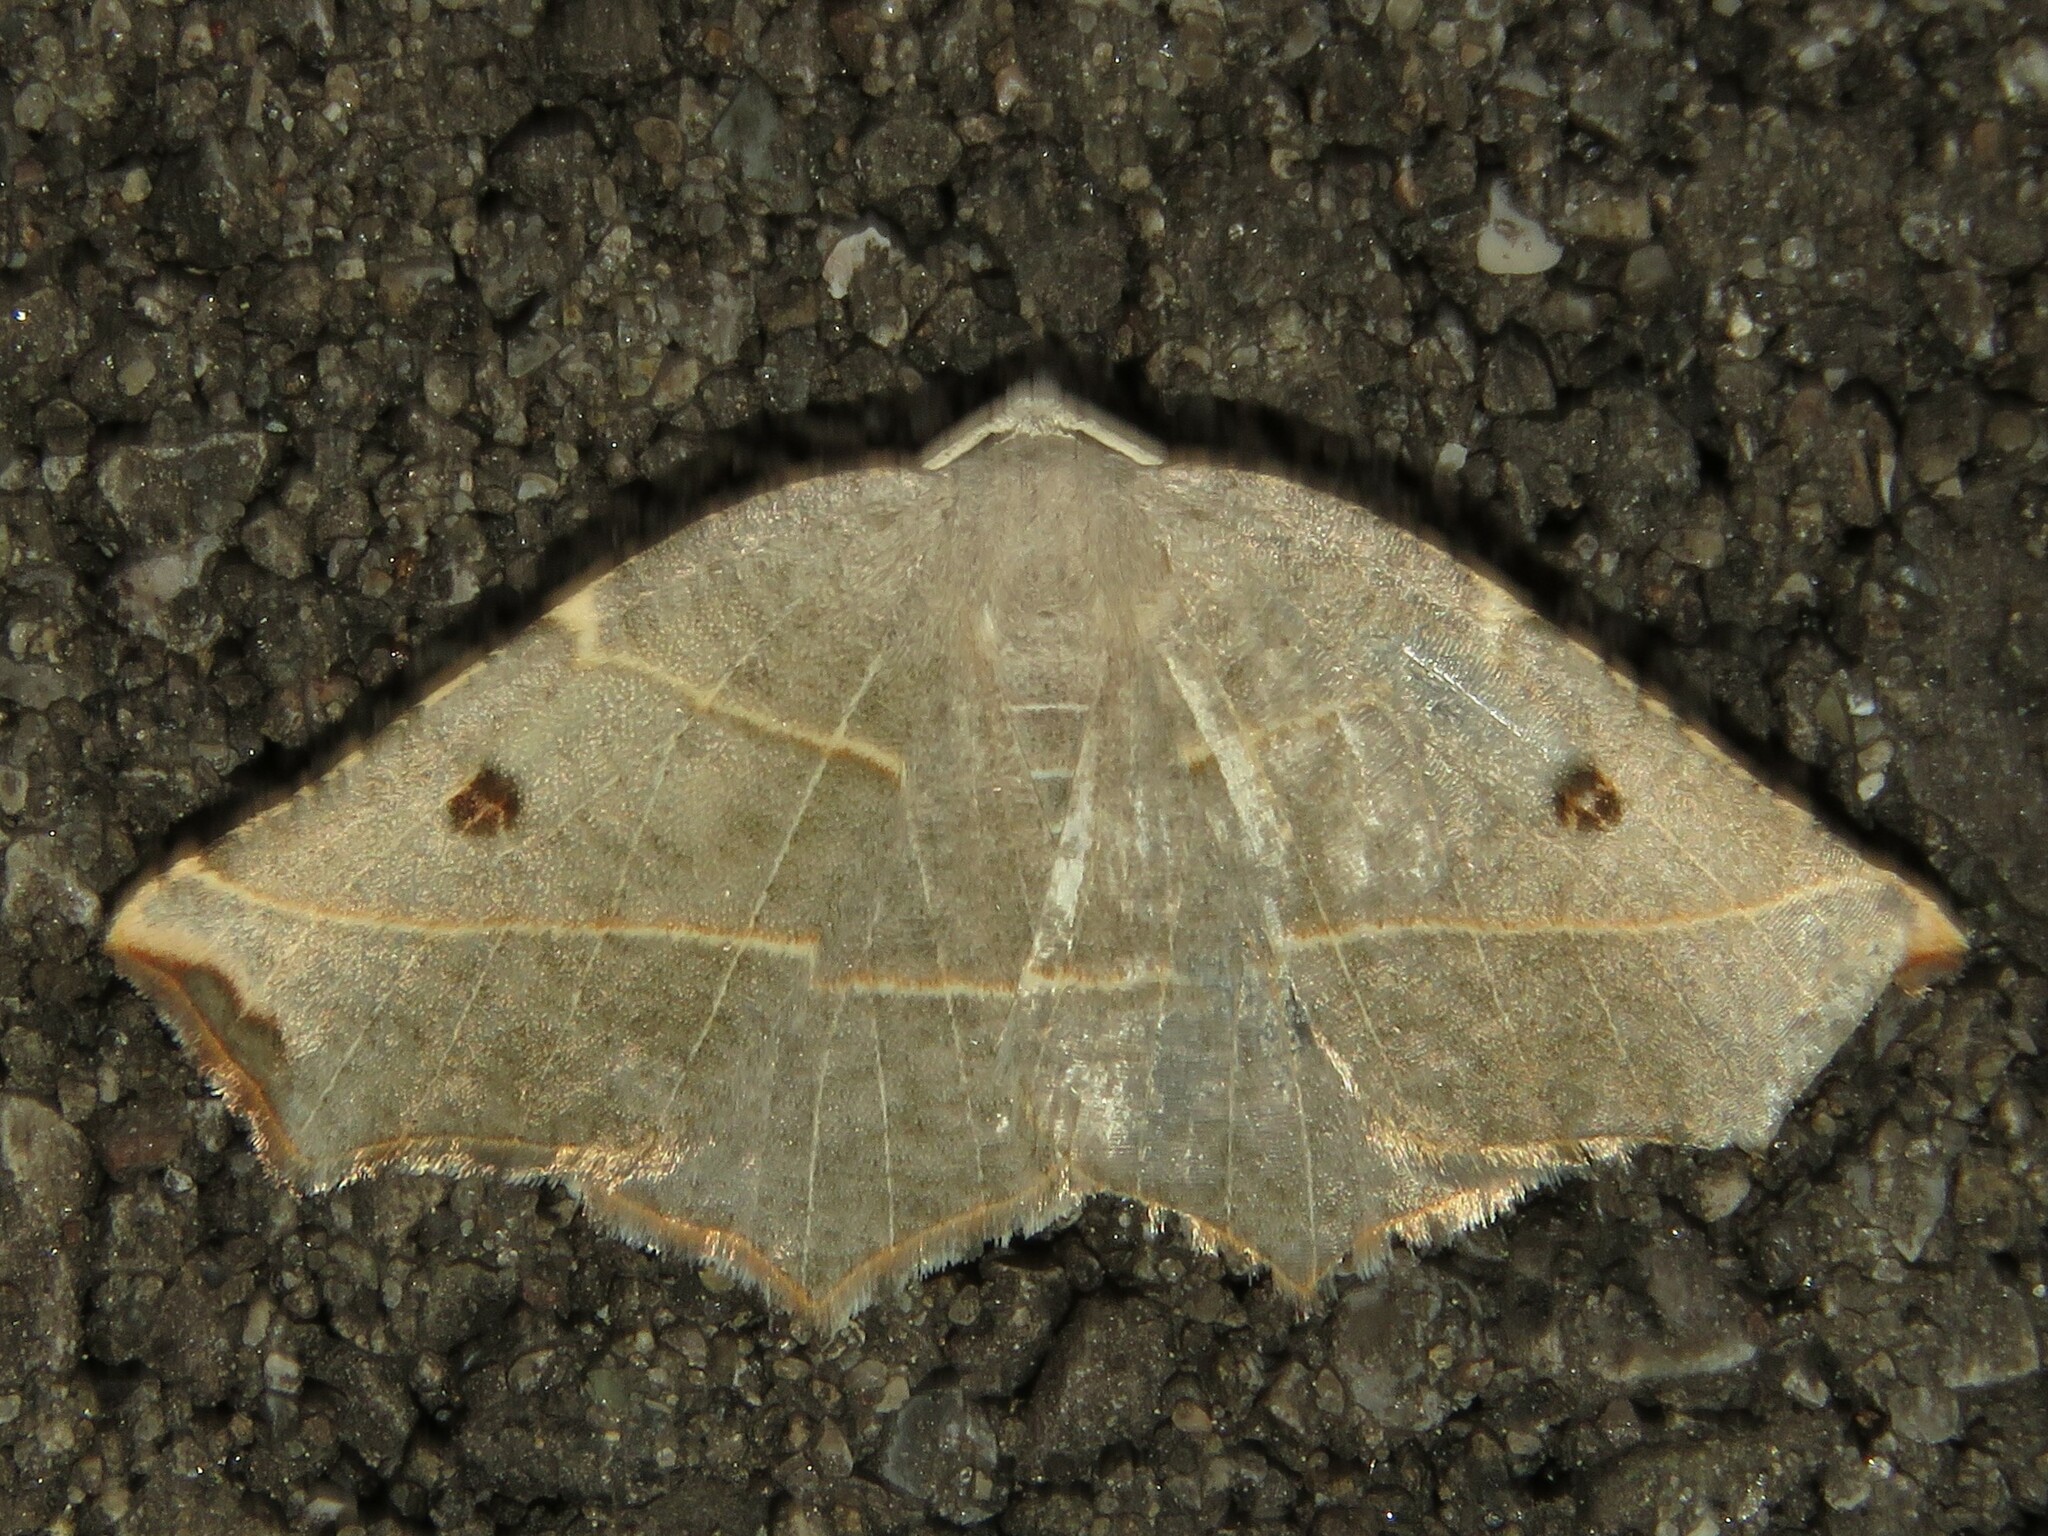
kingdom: Animalia
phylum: Arthropoda
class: Insecta
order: Lepidoptera
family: Geometridae
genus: Metanema
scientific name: Metanema inatomaria
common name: Pale metanema
